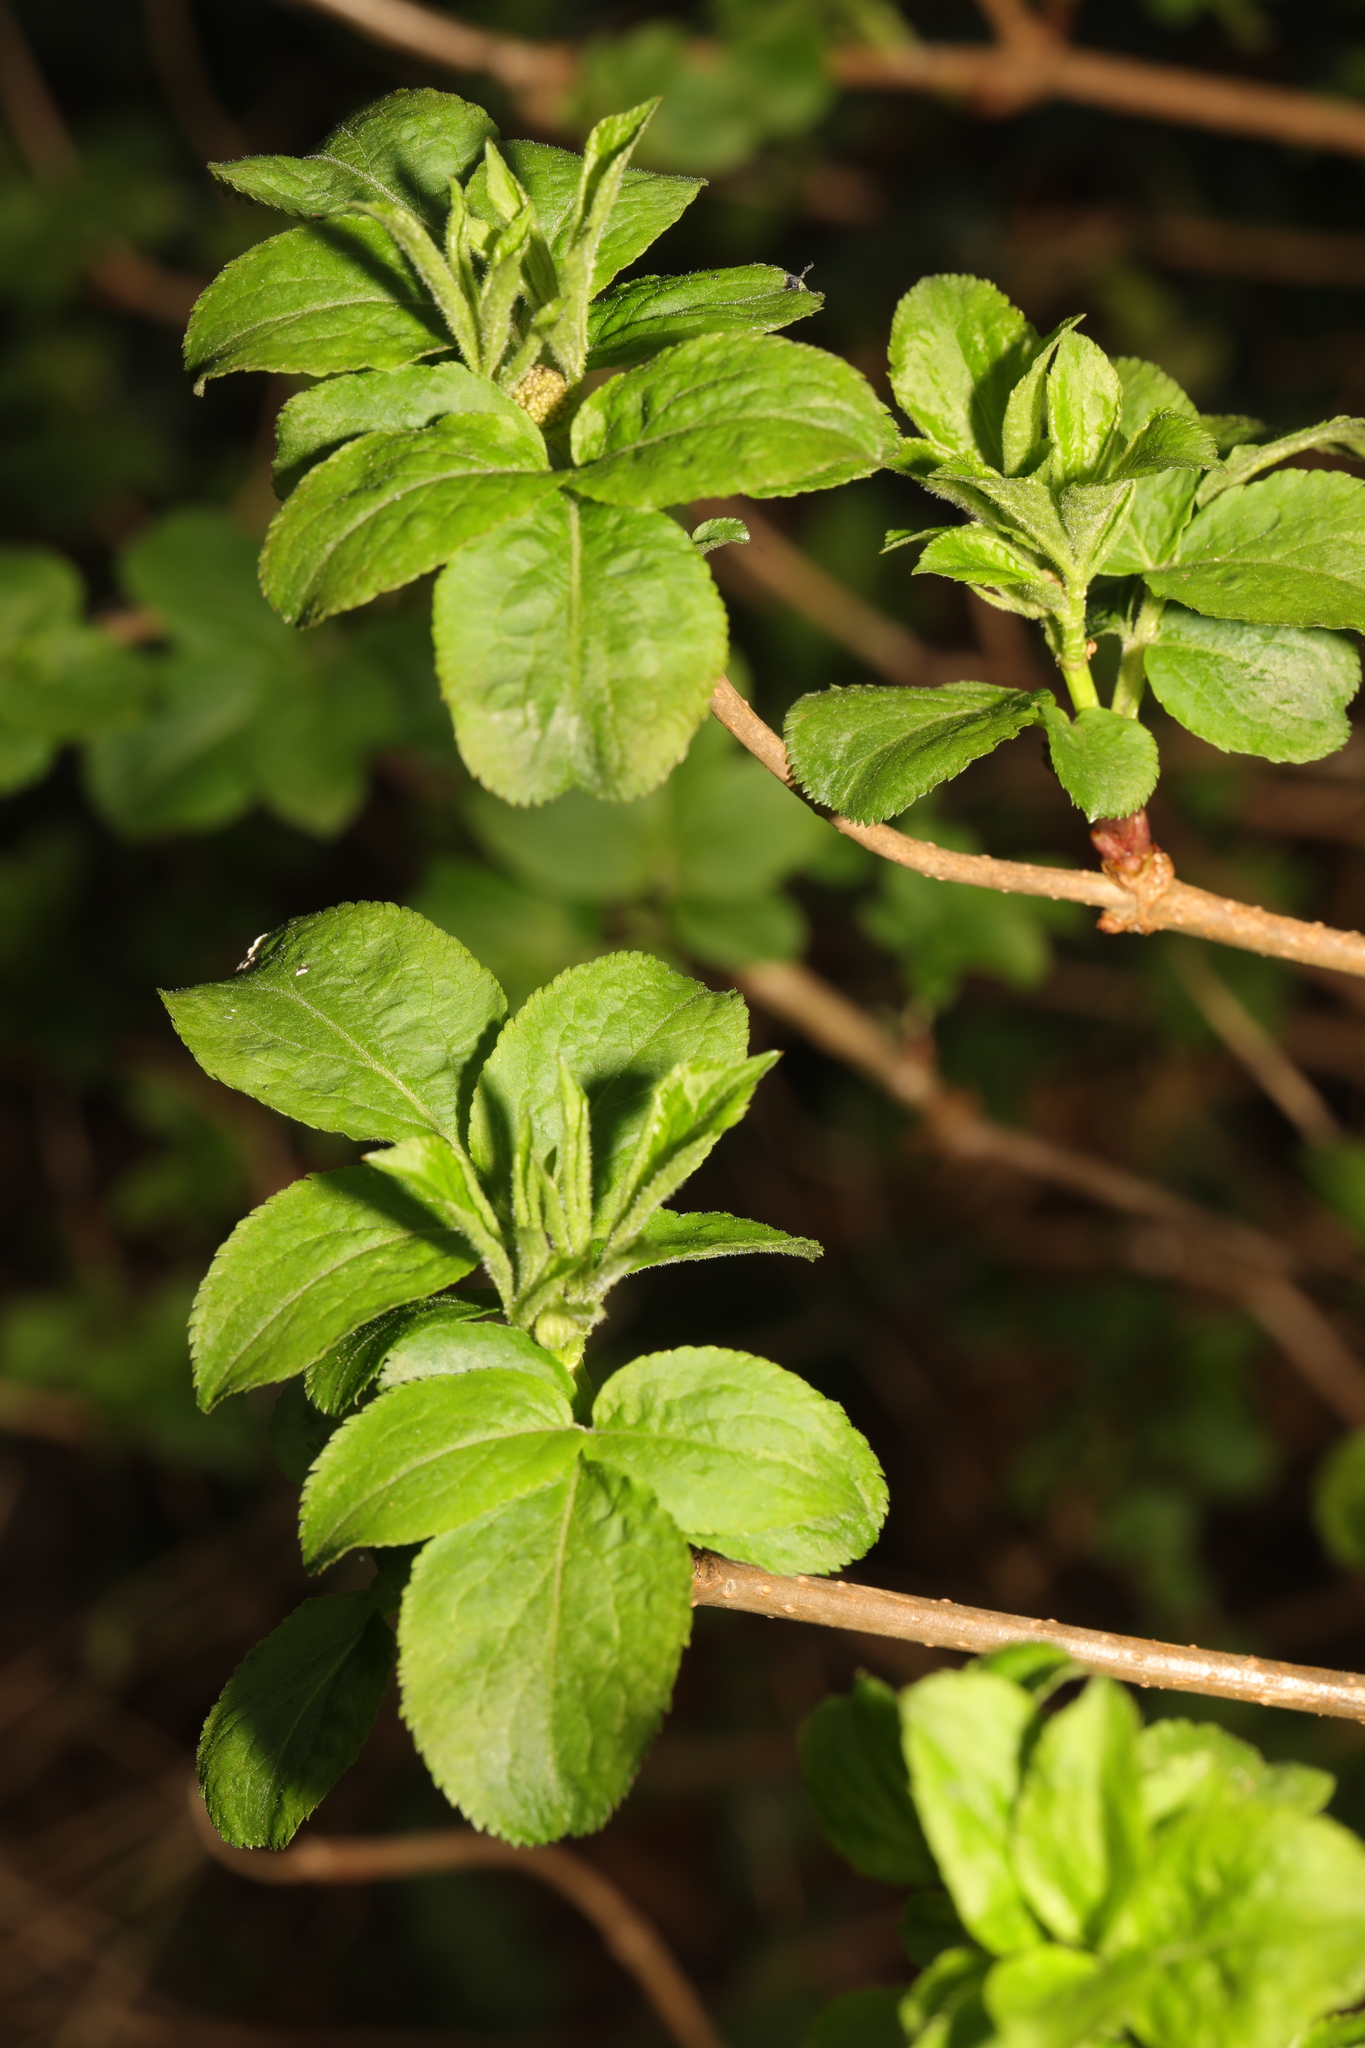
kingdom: Plantae
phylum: Tracheophyta
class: Magnoliopsida
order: Dipsacales
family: Viburnaceae
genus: Sambucus
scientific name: Sambucus nigra
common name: Elder
